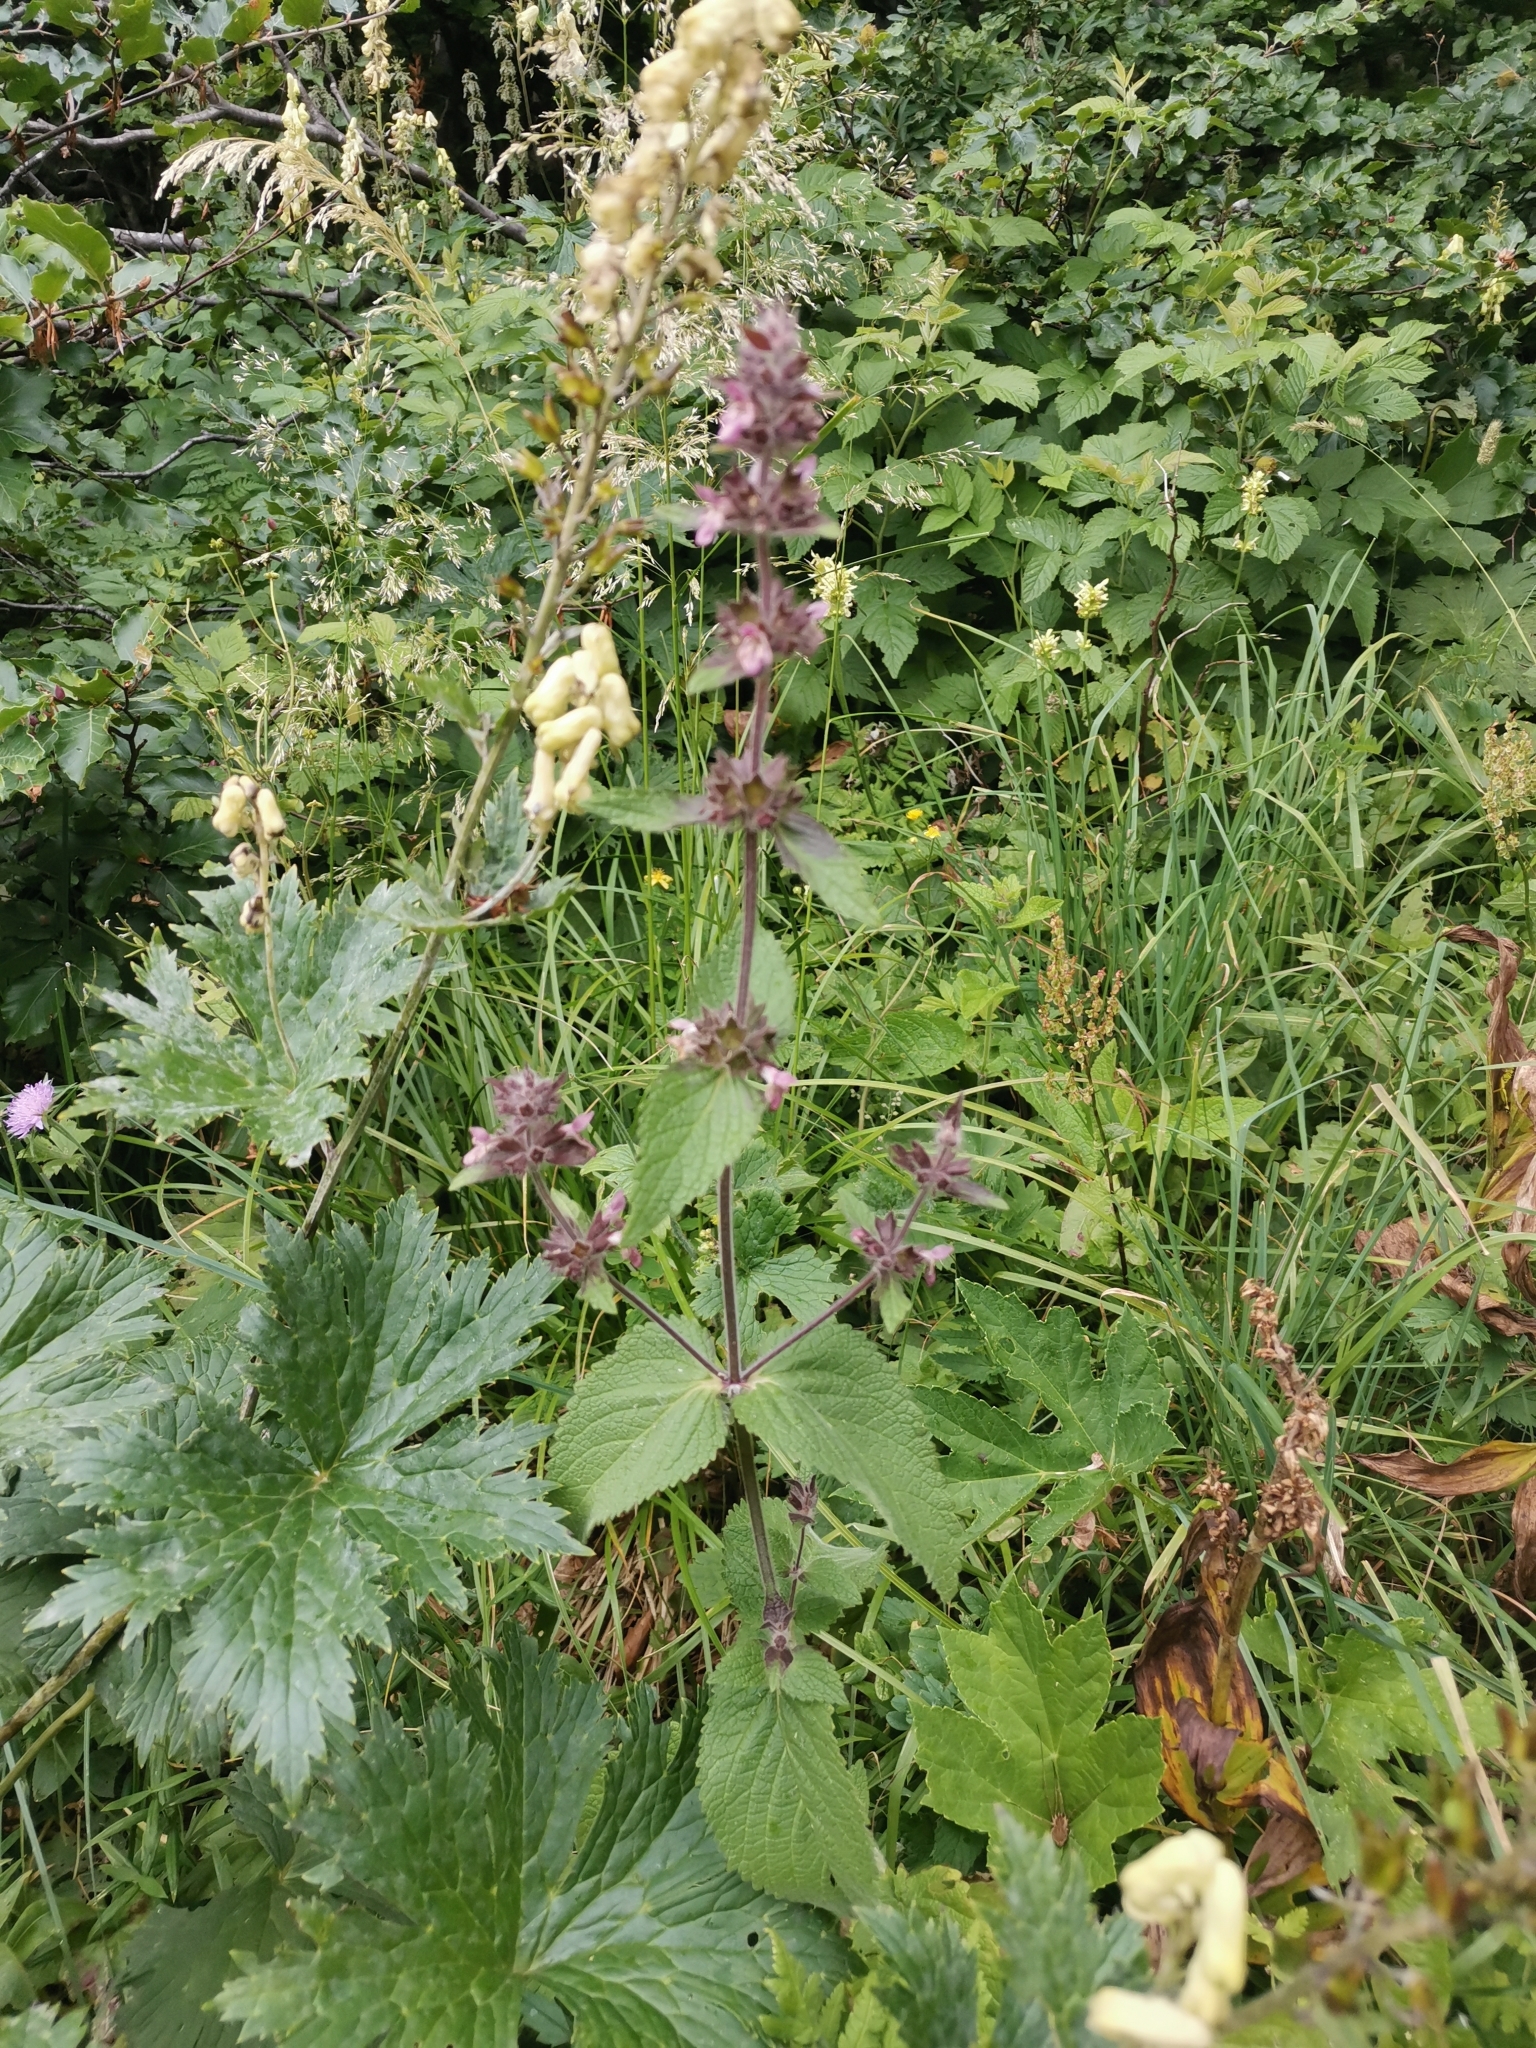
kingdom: Plantae
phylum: Tracheophyta
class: Magnoliopsida
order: Lamiales
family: Lamiaceae
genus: Stachys
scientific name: Stachys alpina
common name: Limestone woundwort
